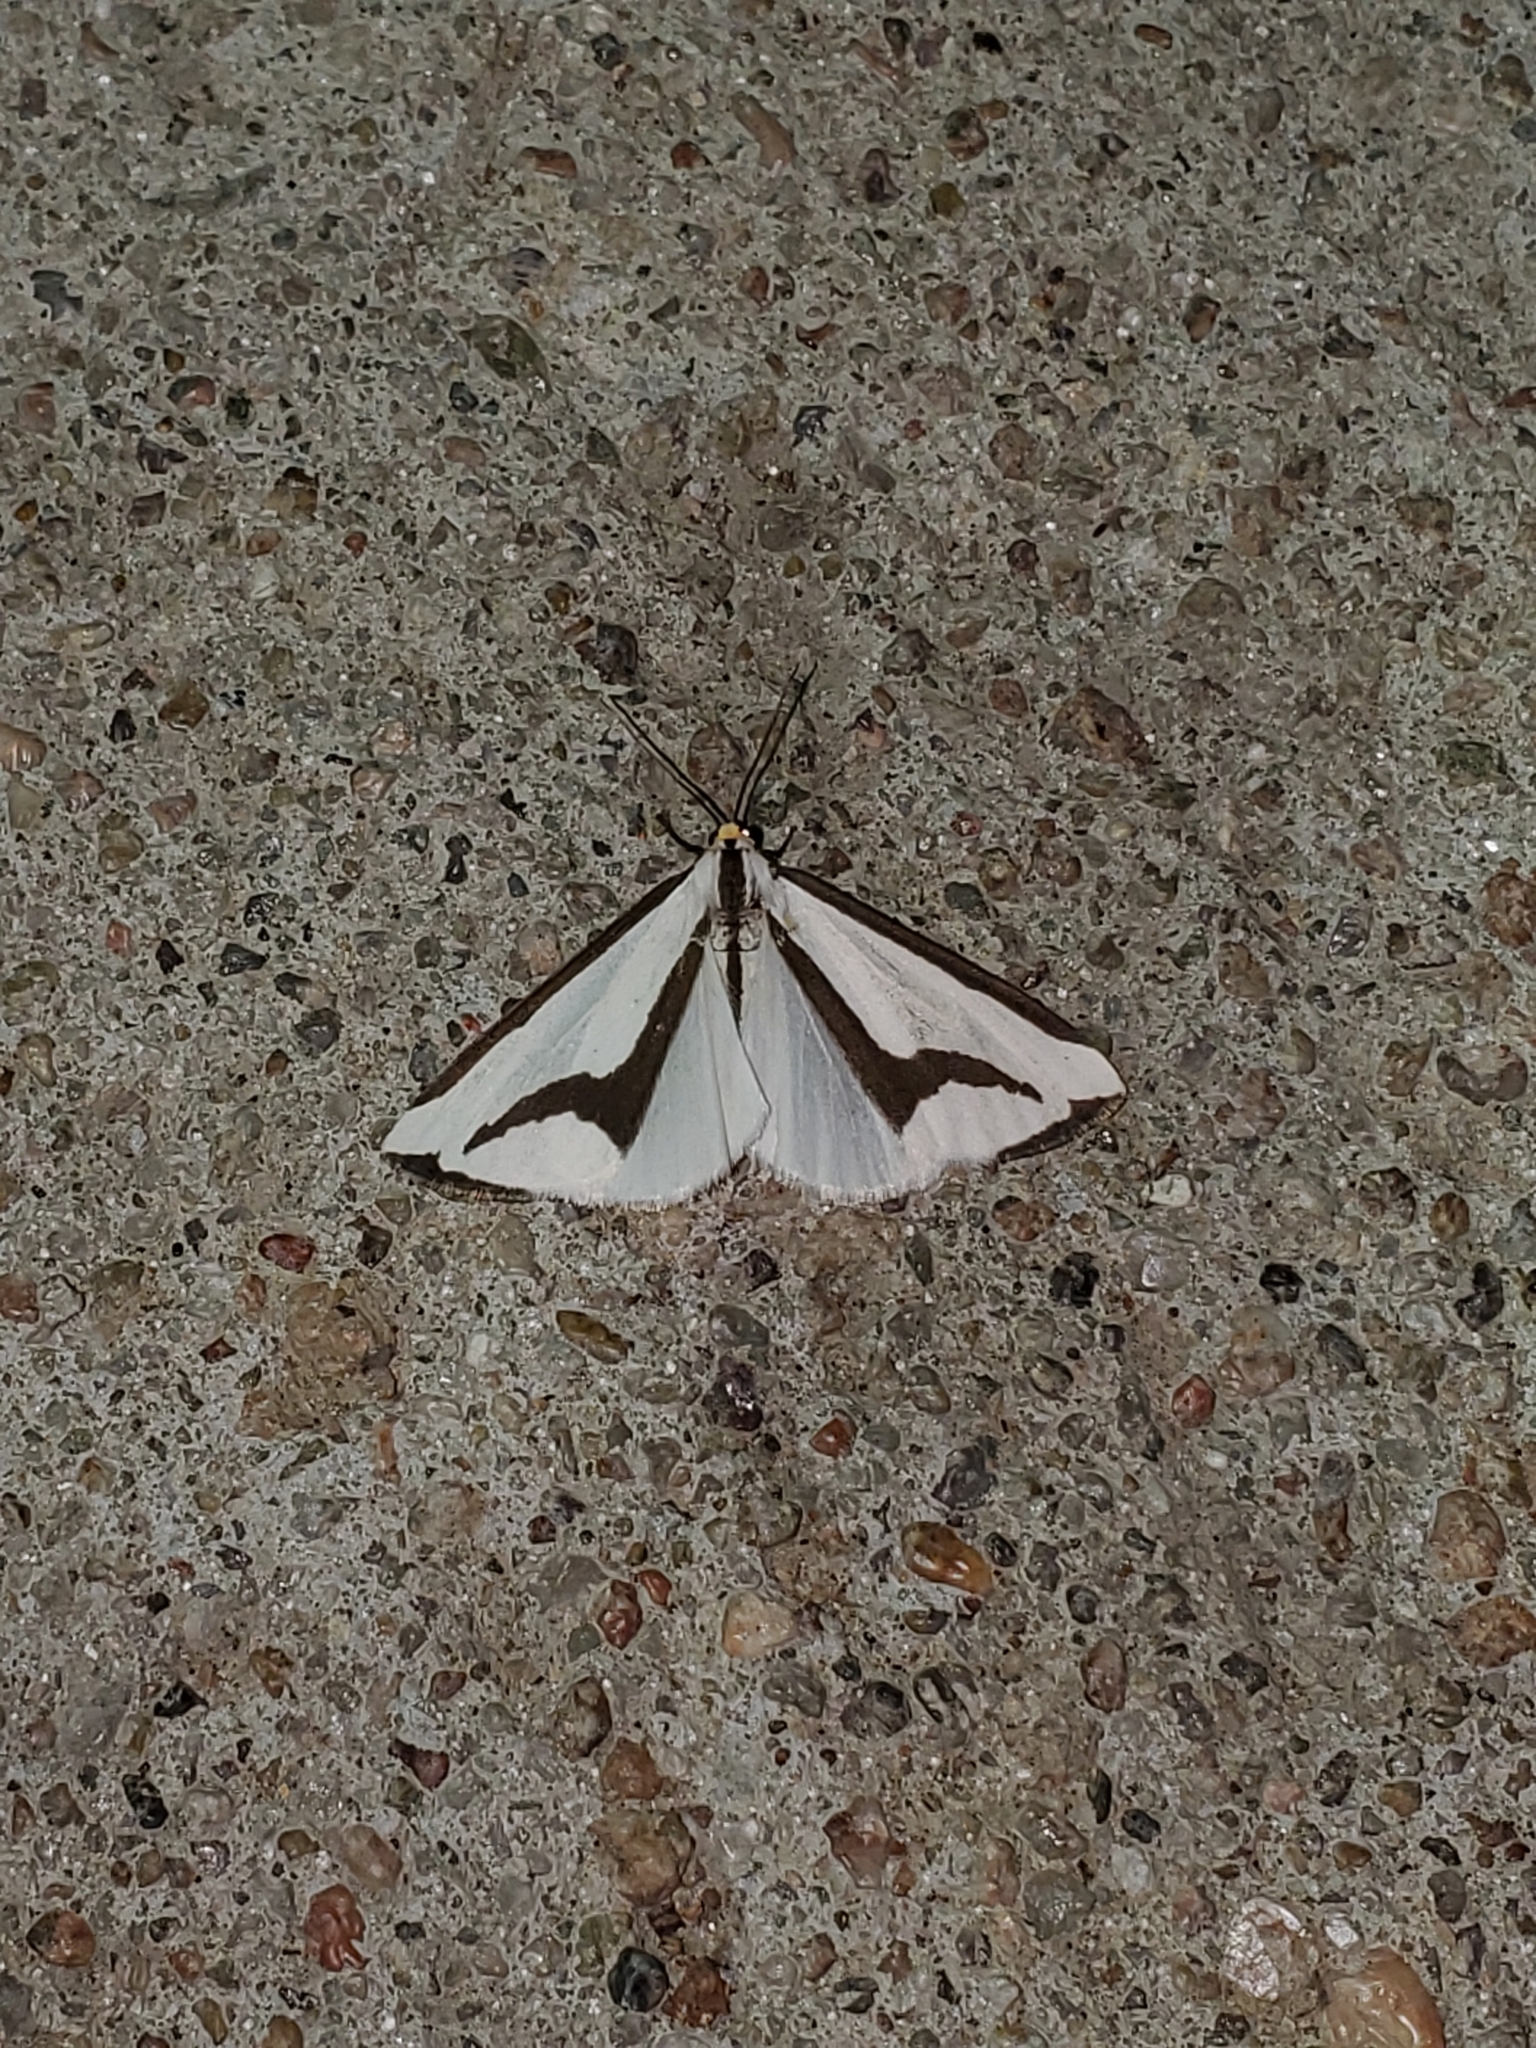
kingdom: Animalia
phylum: Arthropoda
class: Insecta
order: Lepidoptera
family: Erebidae
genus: Haploa
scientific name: Haploa lecontei
